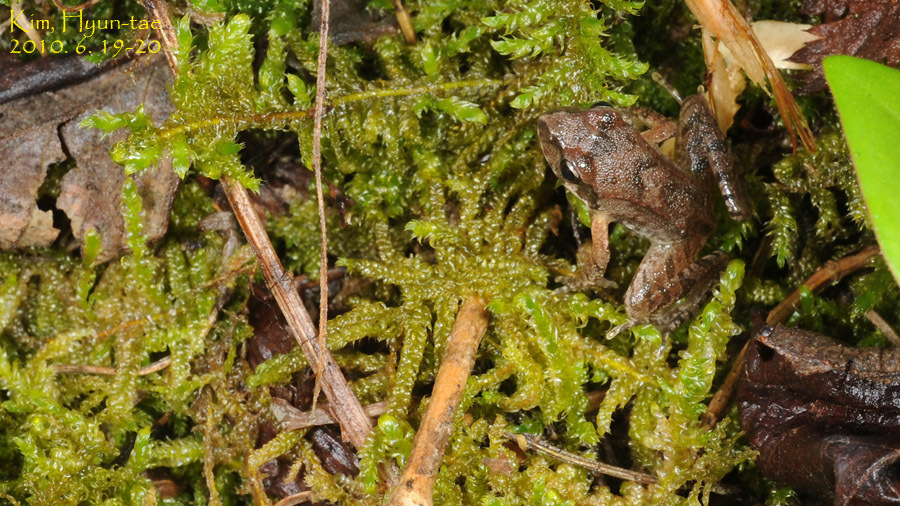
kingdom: Animalia
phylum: Chordata
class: Amphibia
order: Anura
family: Ranidae
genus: Rana
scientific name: Rana uenoi
